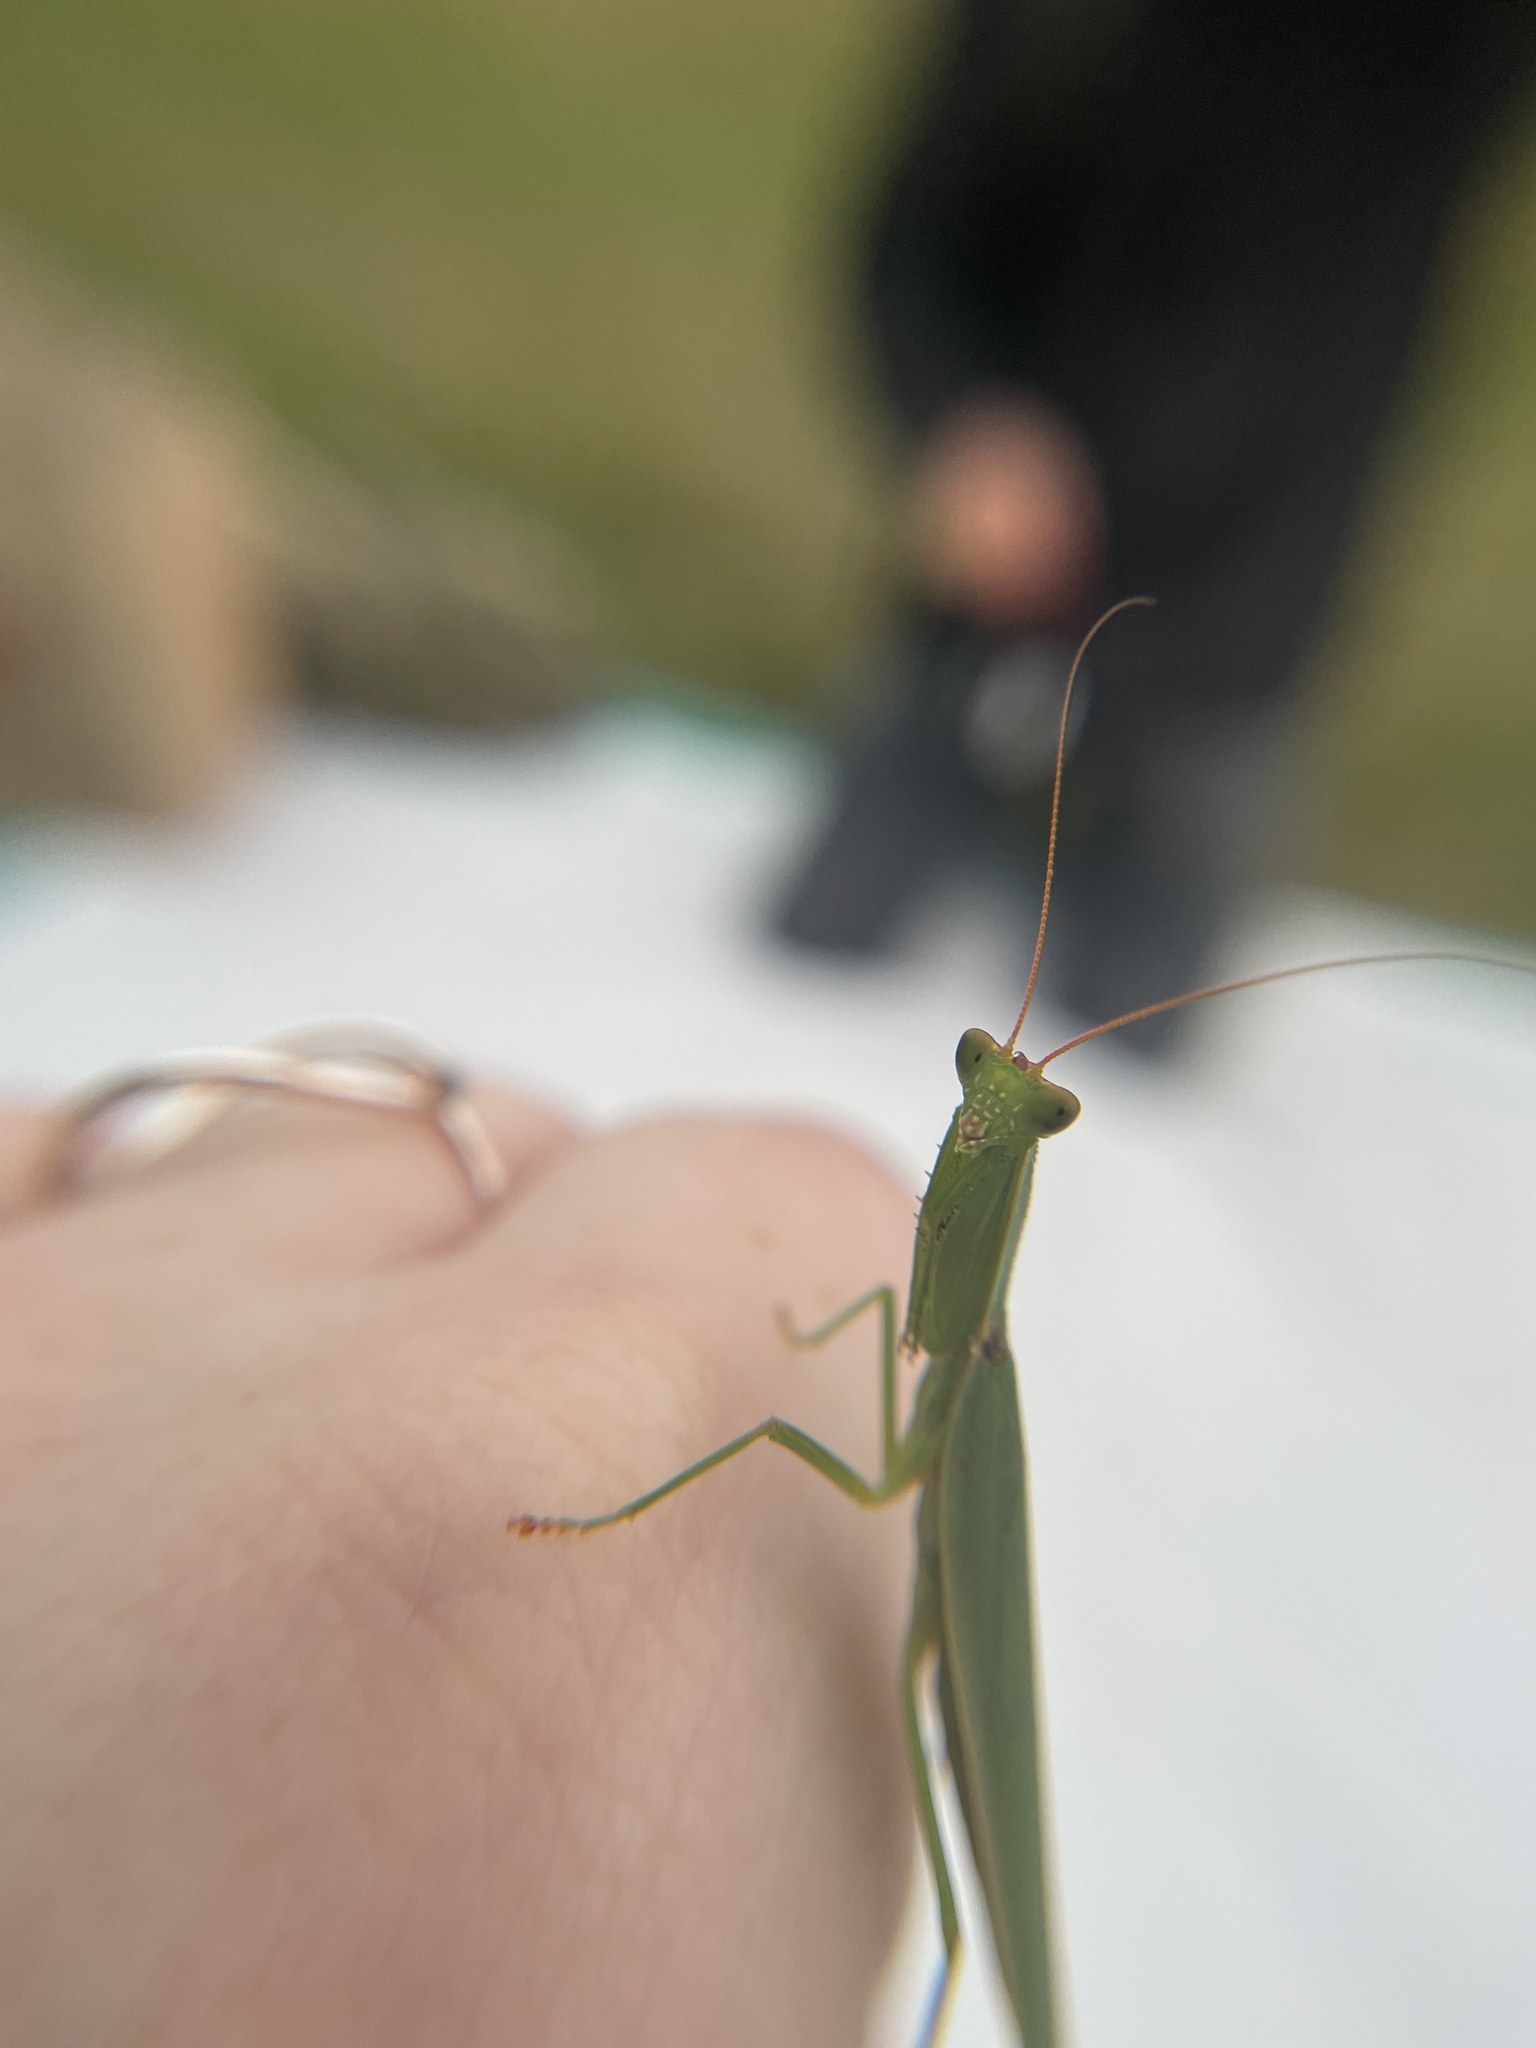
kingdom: Animalia
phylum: Arthropoda
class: Insecta
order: Mantodea
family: Mantidae
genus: Orthodera
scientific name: Orthodera novaezealandiae
